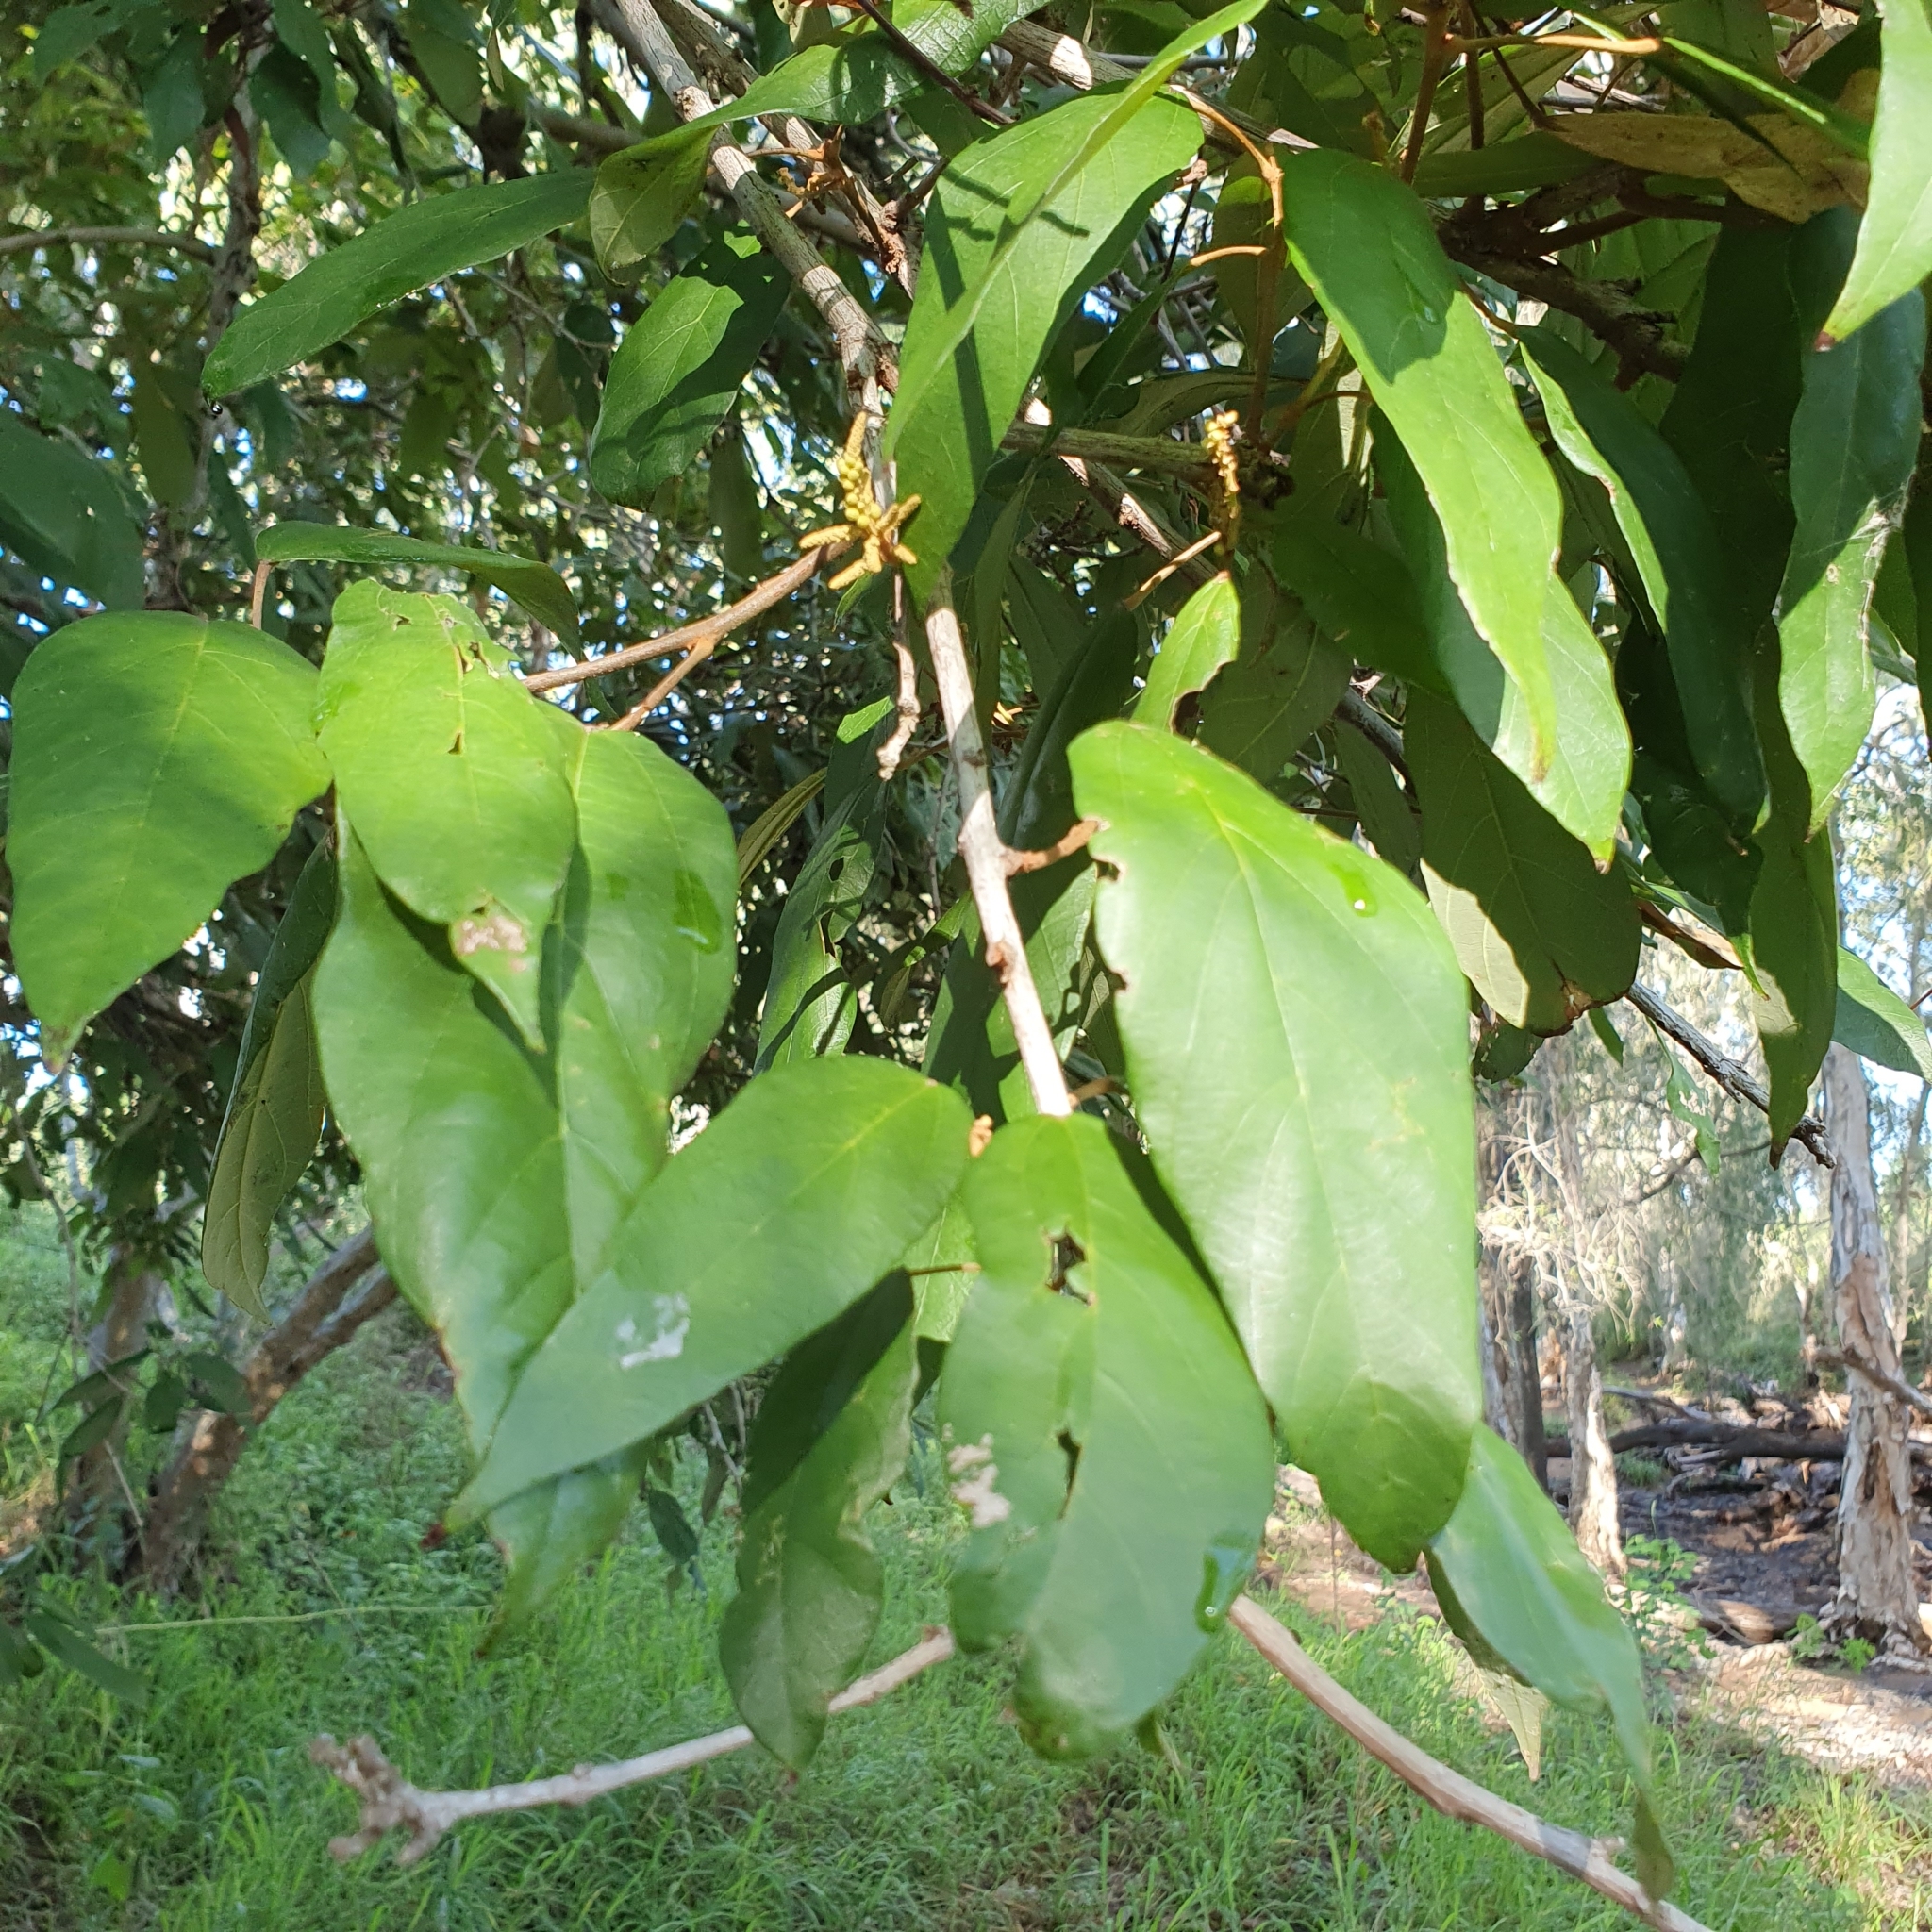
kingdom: Plantae
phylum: Tracheophyta
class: Magnoliopsida
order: Malpighiales
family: Euphorbiaceae
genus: Mallotus
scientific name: Mallotus philippensis
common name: Kamala tree
